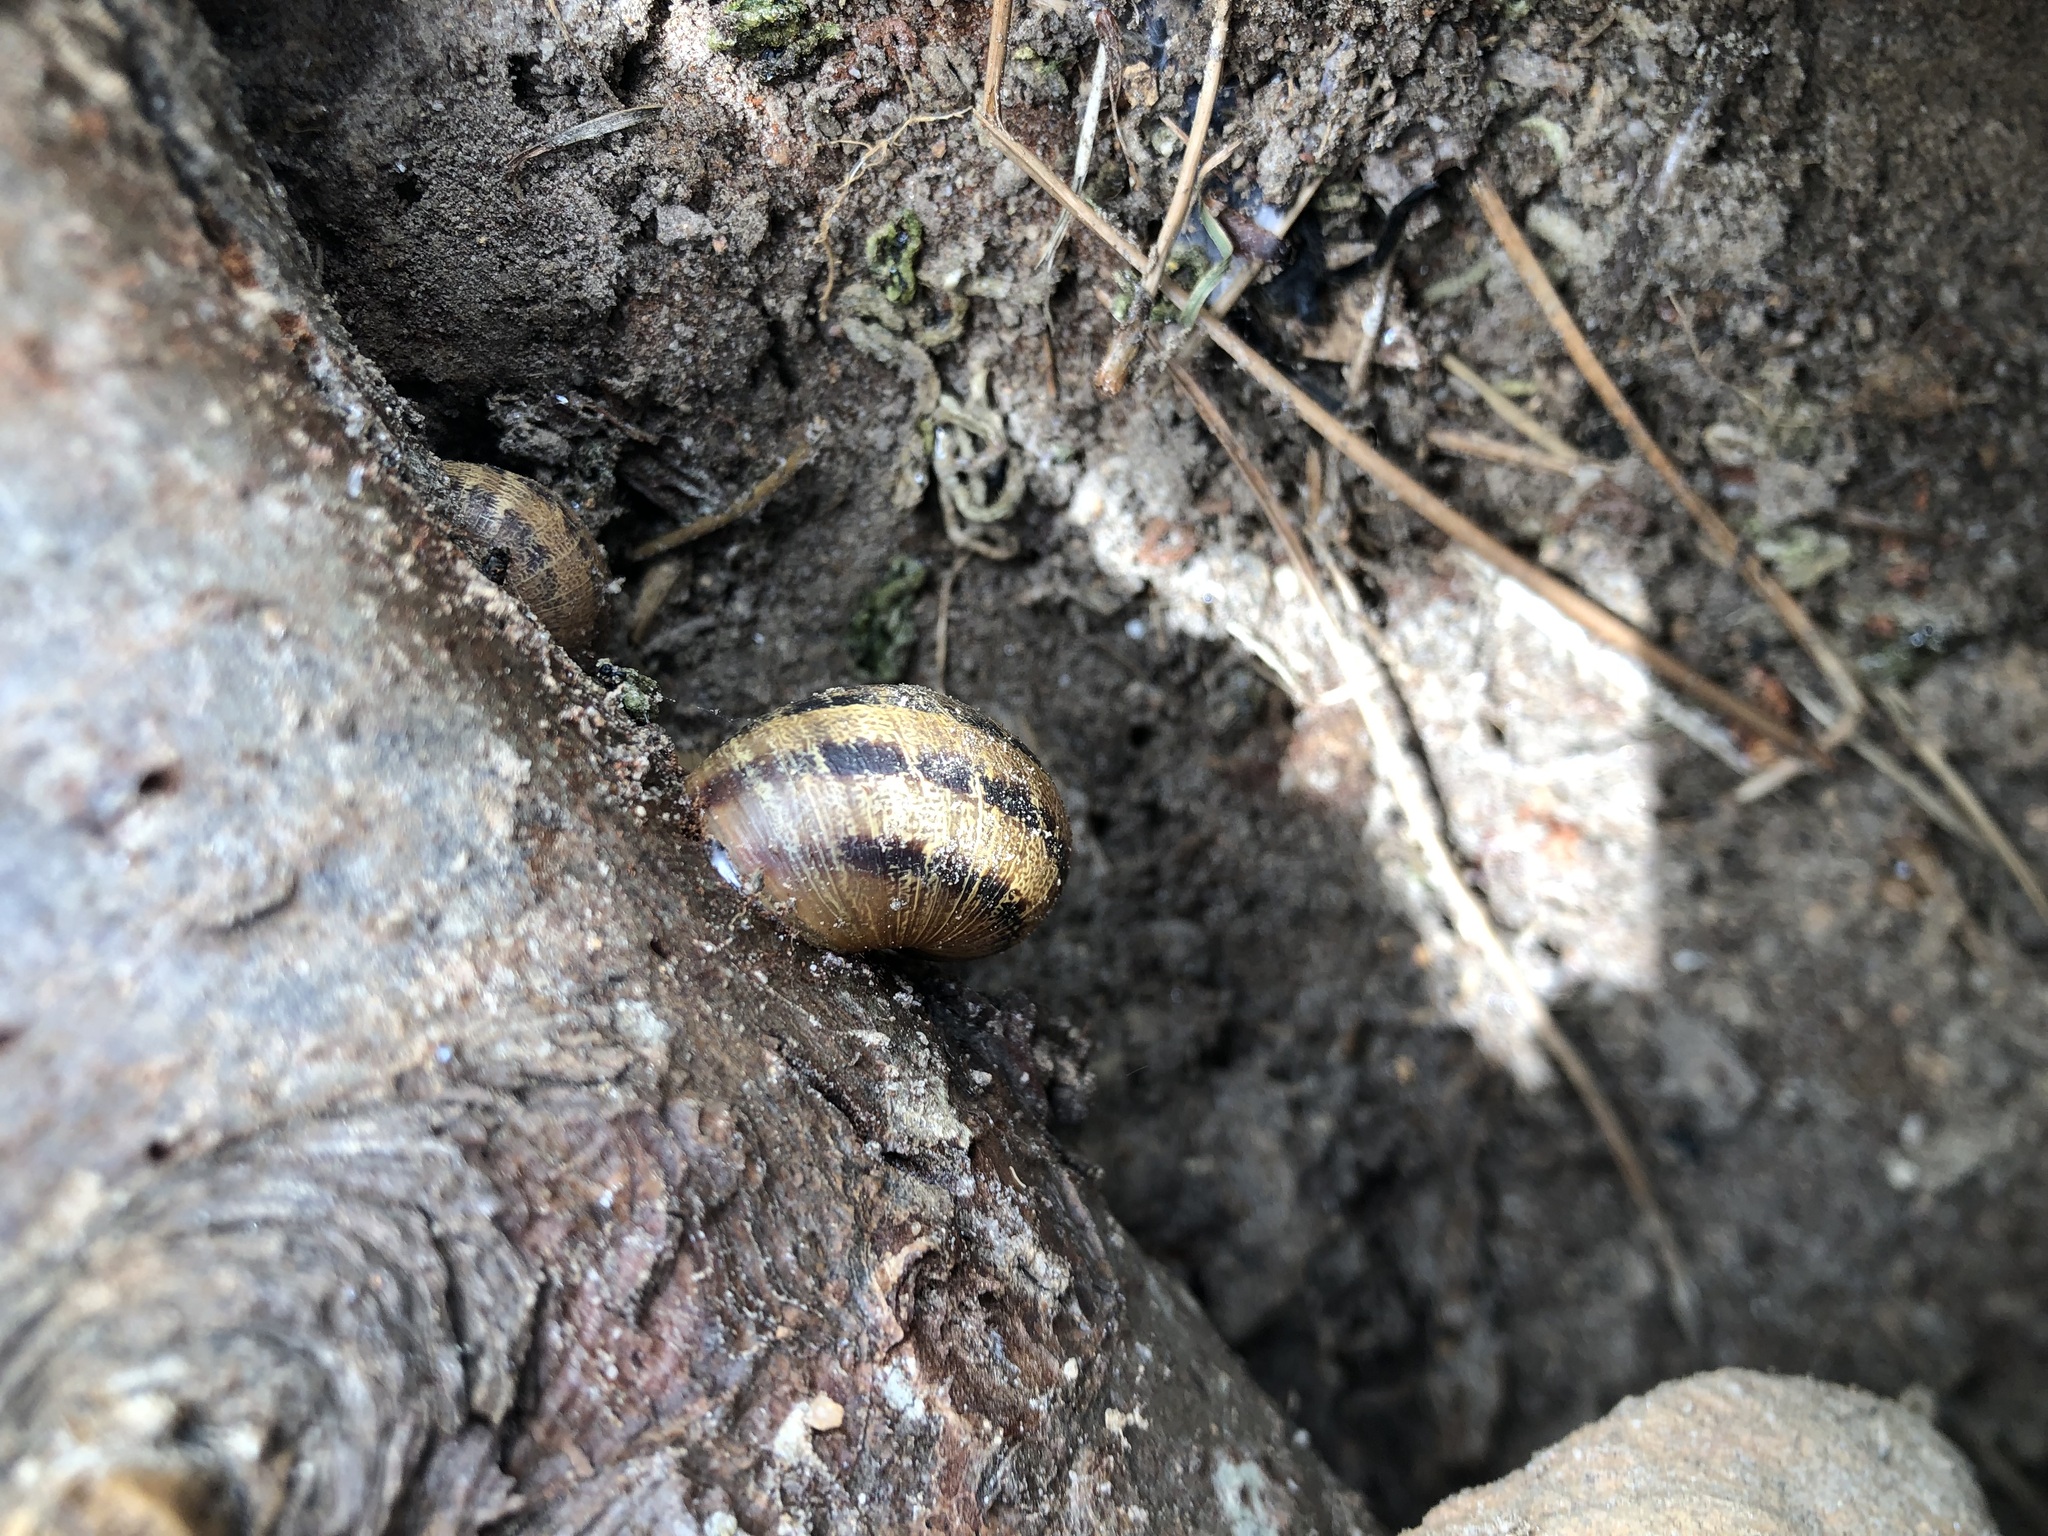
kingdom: Animalia
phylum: Mollusca
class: Gastropoda
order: Stylommatophora
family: Helicidae
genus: Cornu
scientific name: Cornu aspersum
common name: Brown garden snail
